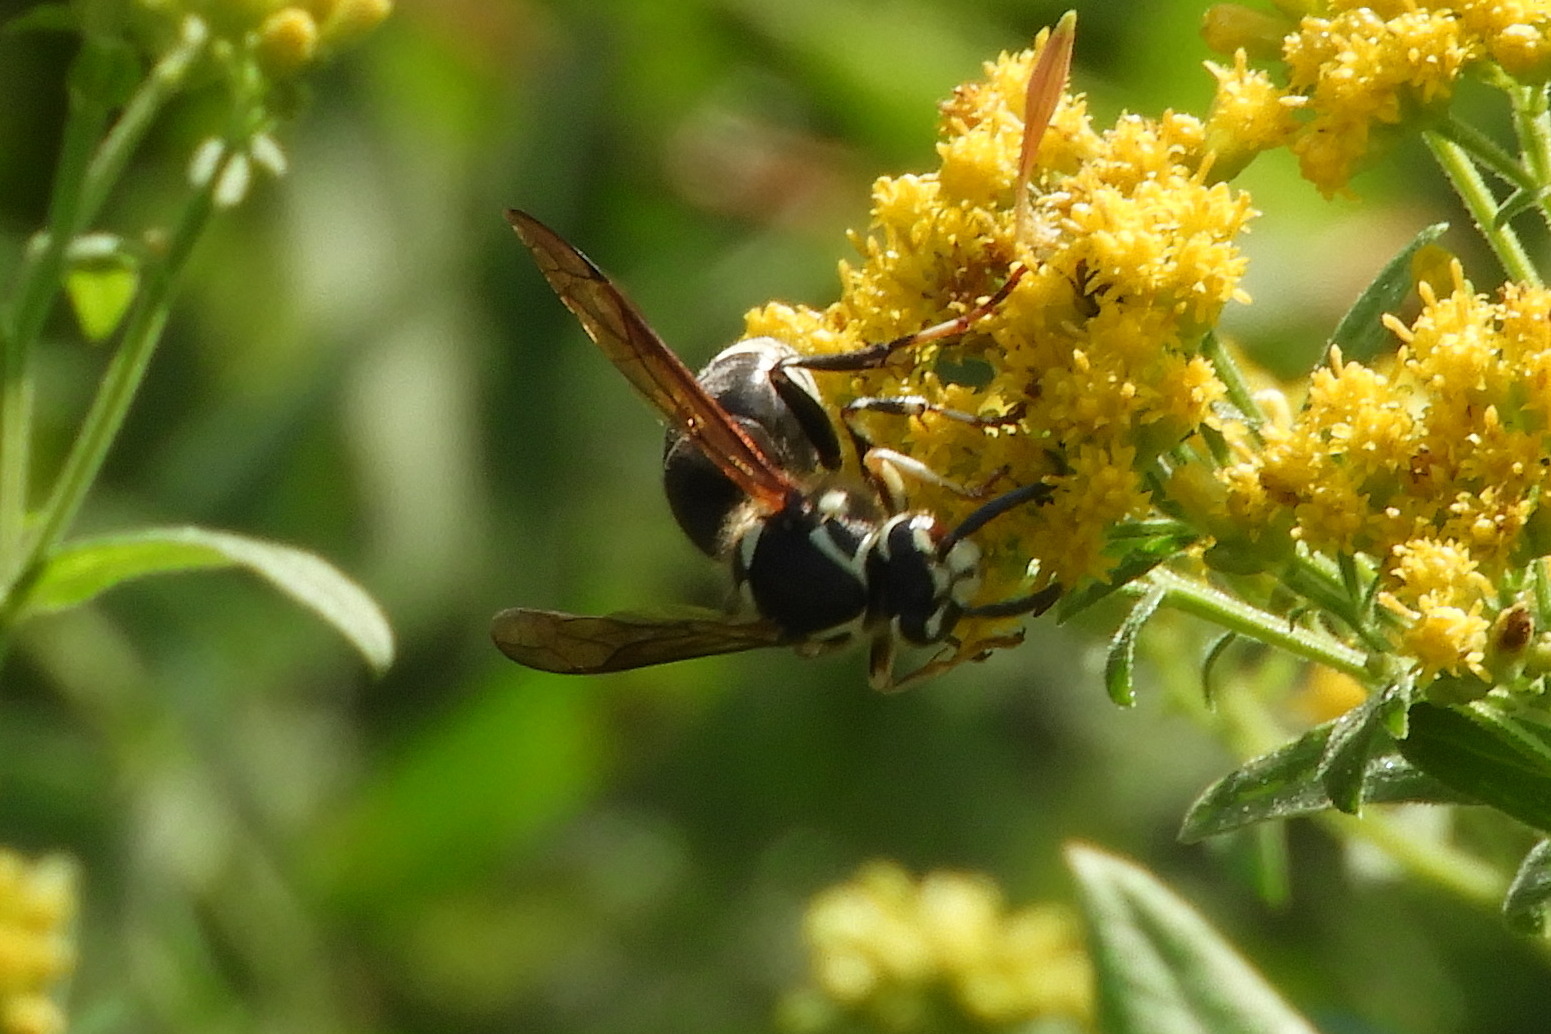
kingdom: Animalia
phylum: Arthropoda
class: Insecta
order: Hymenoptera
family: Vespidae
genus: Dolichovespula
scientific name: Dolichovespula maculata
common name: Bald-faced hornet
